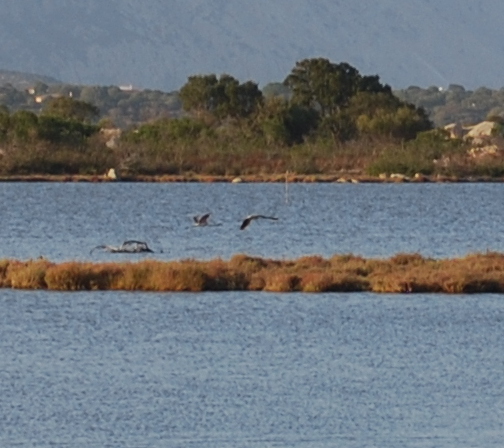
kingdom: Animalia
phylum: Chordata
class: Aves
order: Phoenicopteriformes
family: Phoenicopteridae
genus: Phoenicopterus
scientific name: Phoenicopterus roseus
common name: Greater flamingo
